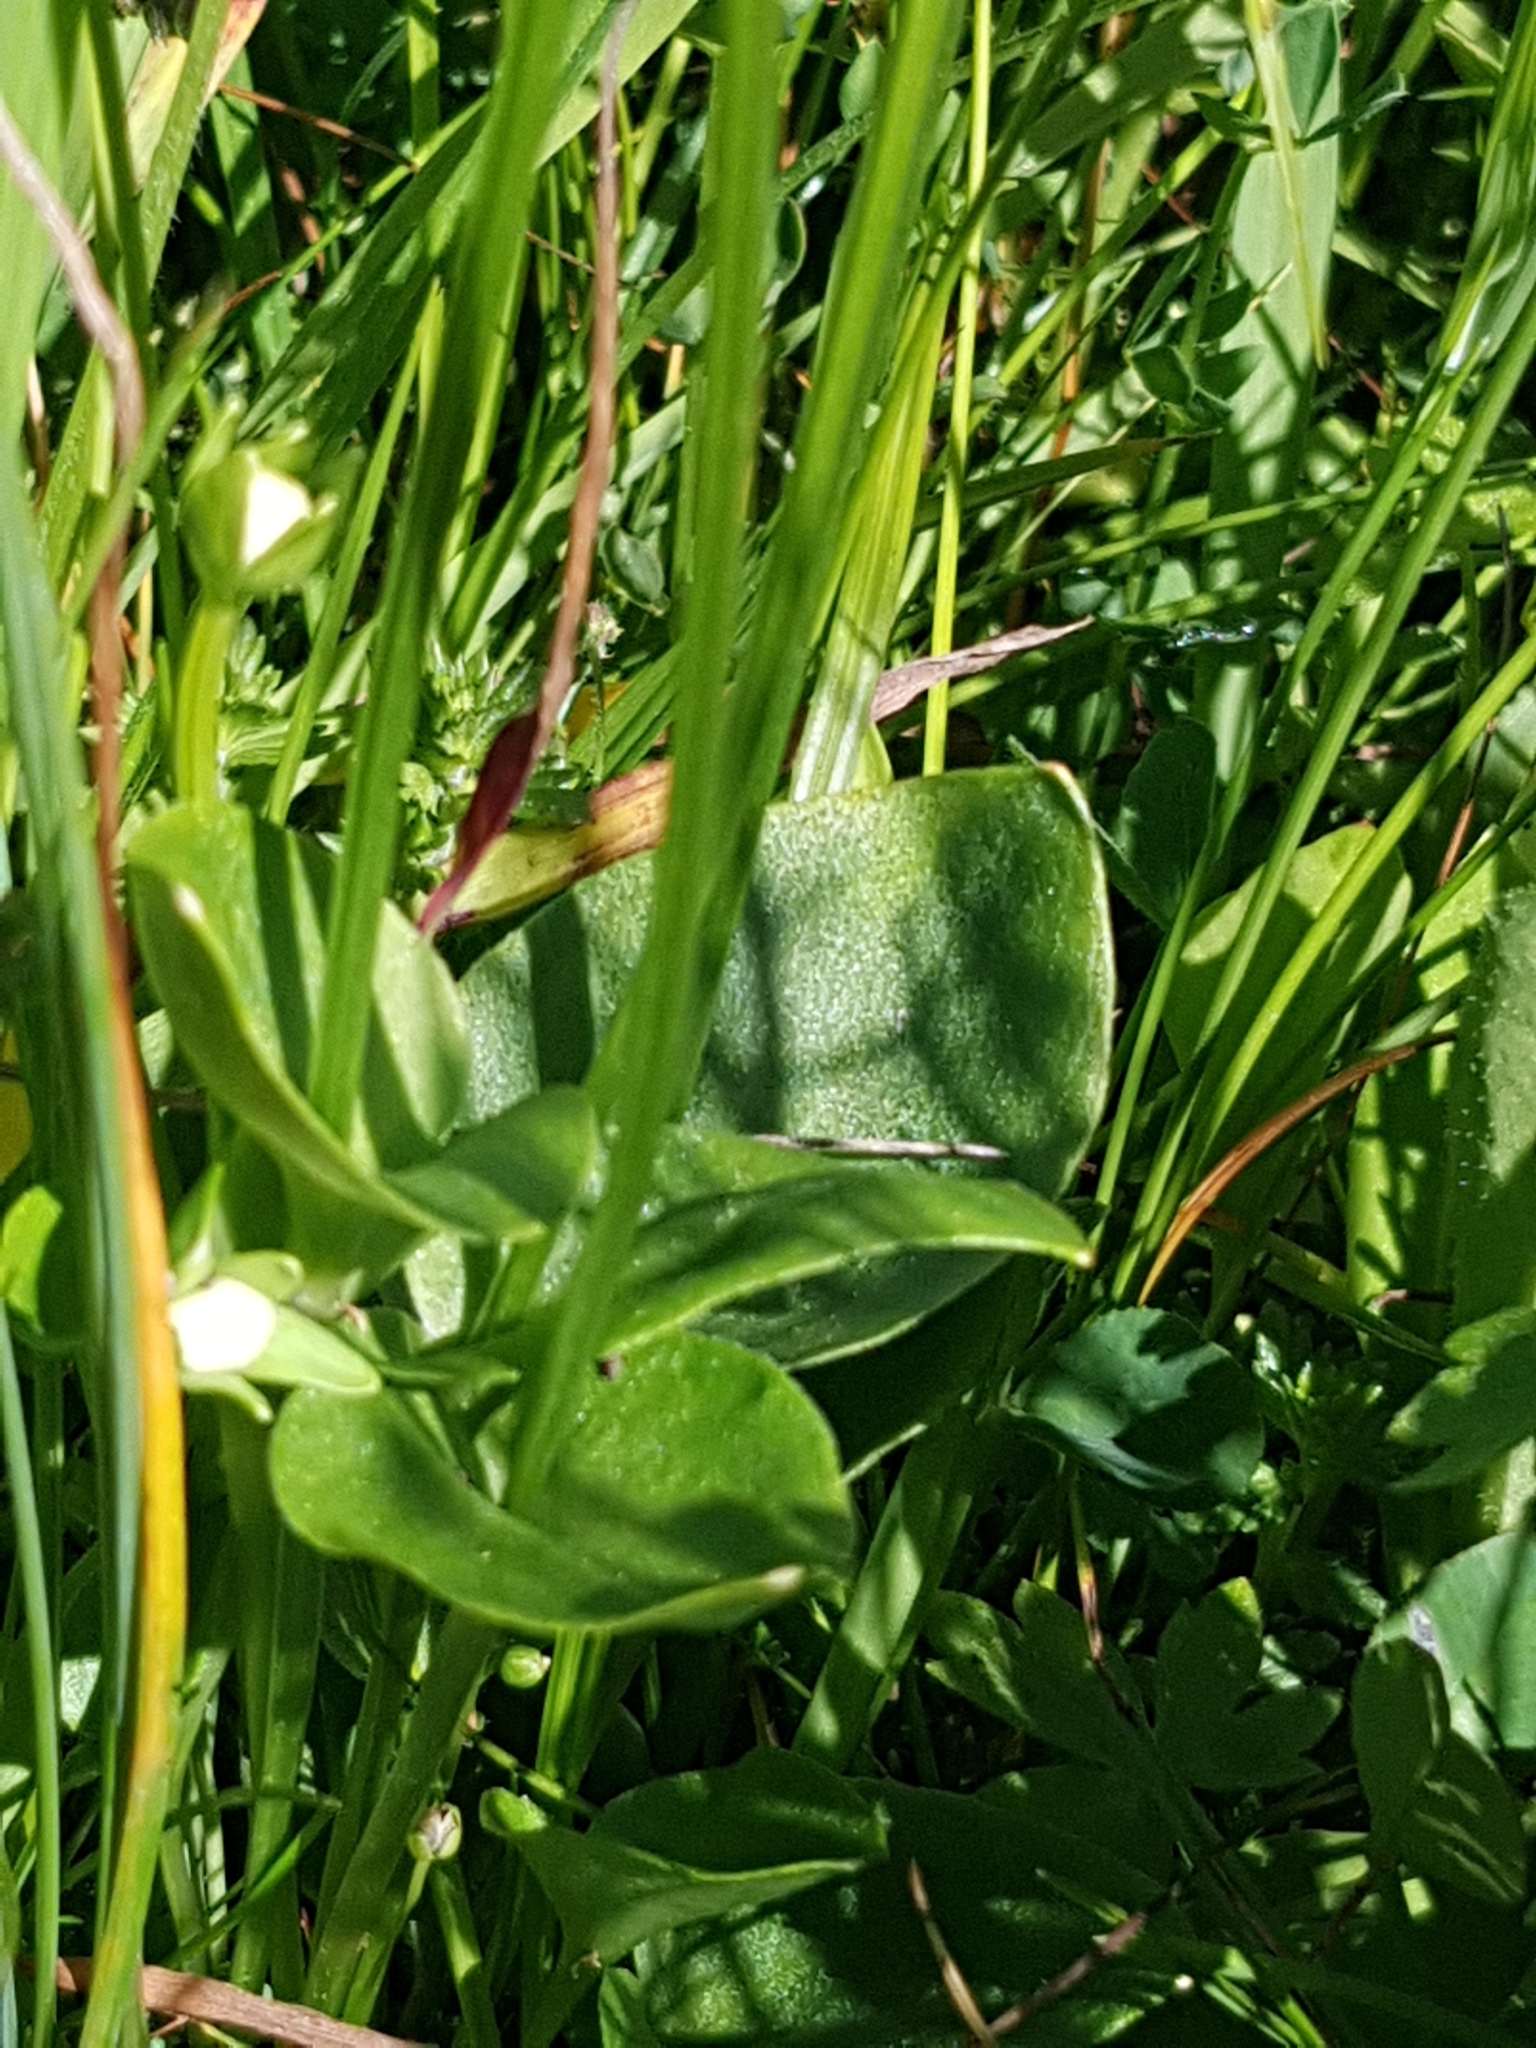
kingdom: Plantae
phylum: Tracheophyta
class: Magnoliopsida
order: Celastrales
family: Parnassiaceae
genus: Parnassia
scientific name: Parnassia palustris
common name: Grass-of-parnassus
